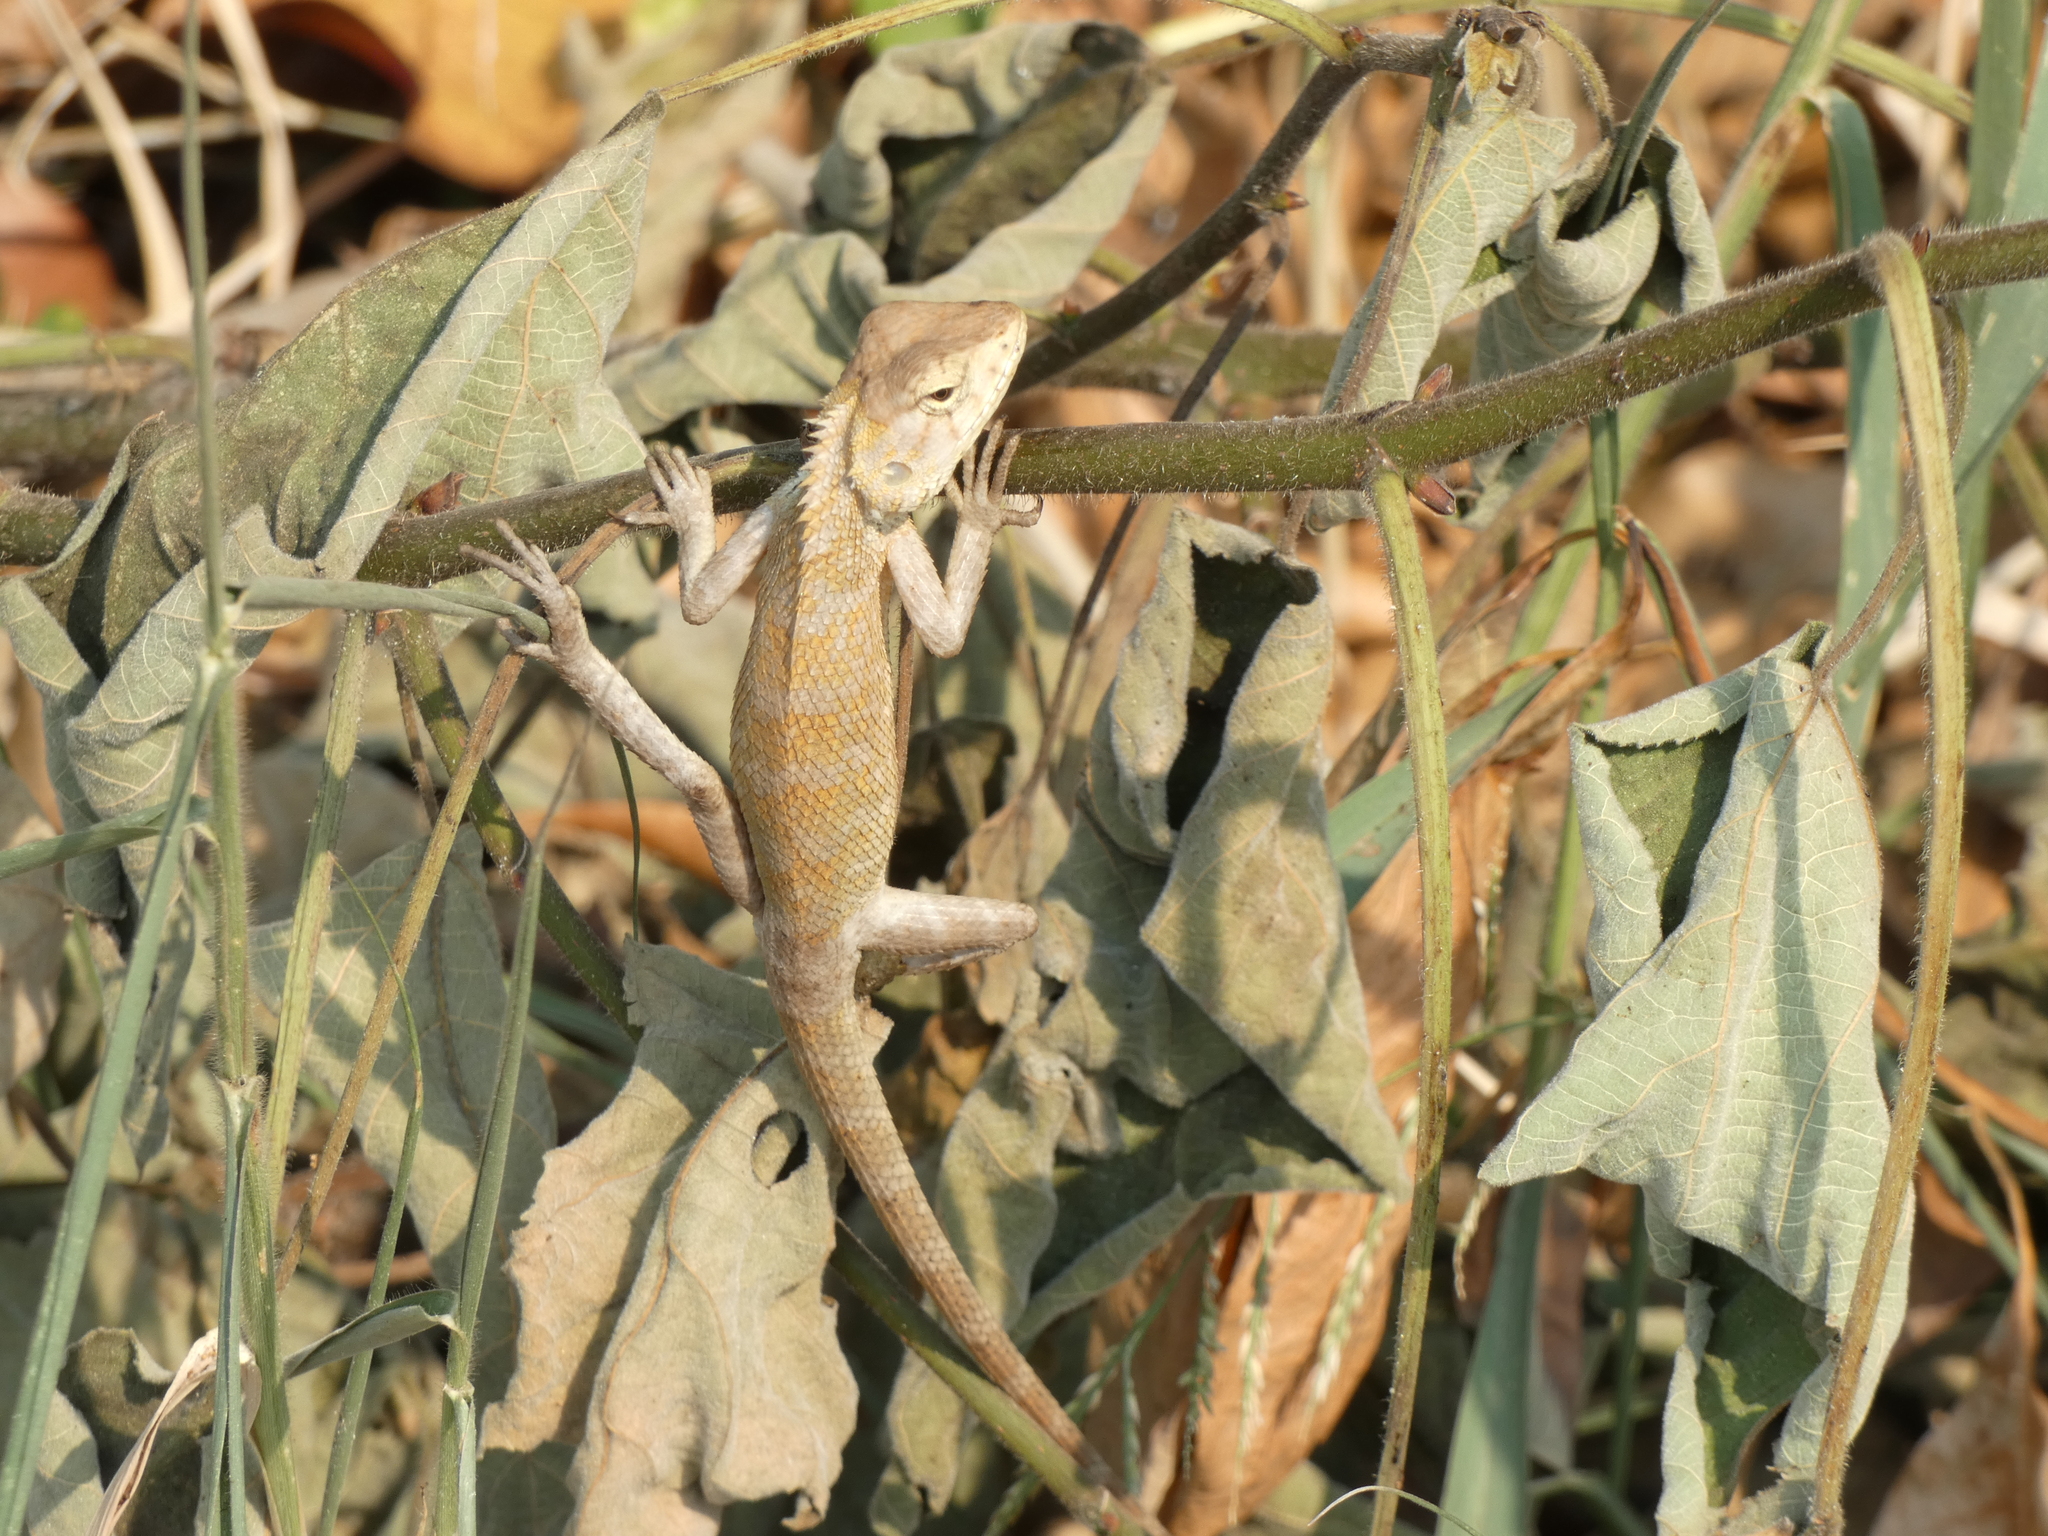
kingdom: Animalia
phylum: Chordata
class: Squamata
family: Agamidae
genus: Calotes
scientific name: Calotes versicolor
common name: Oriental garden lizard
